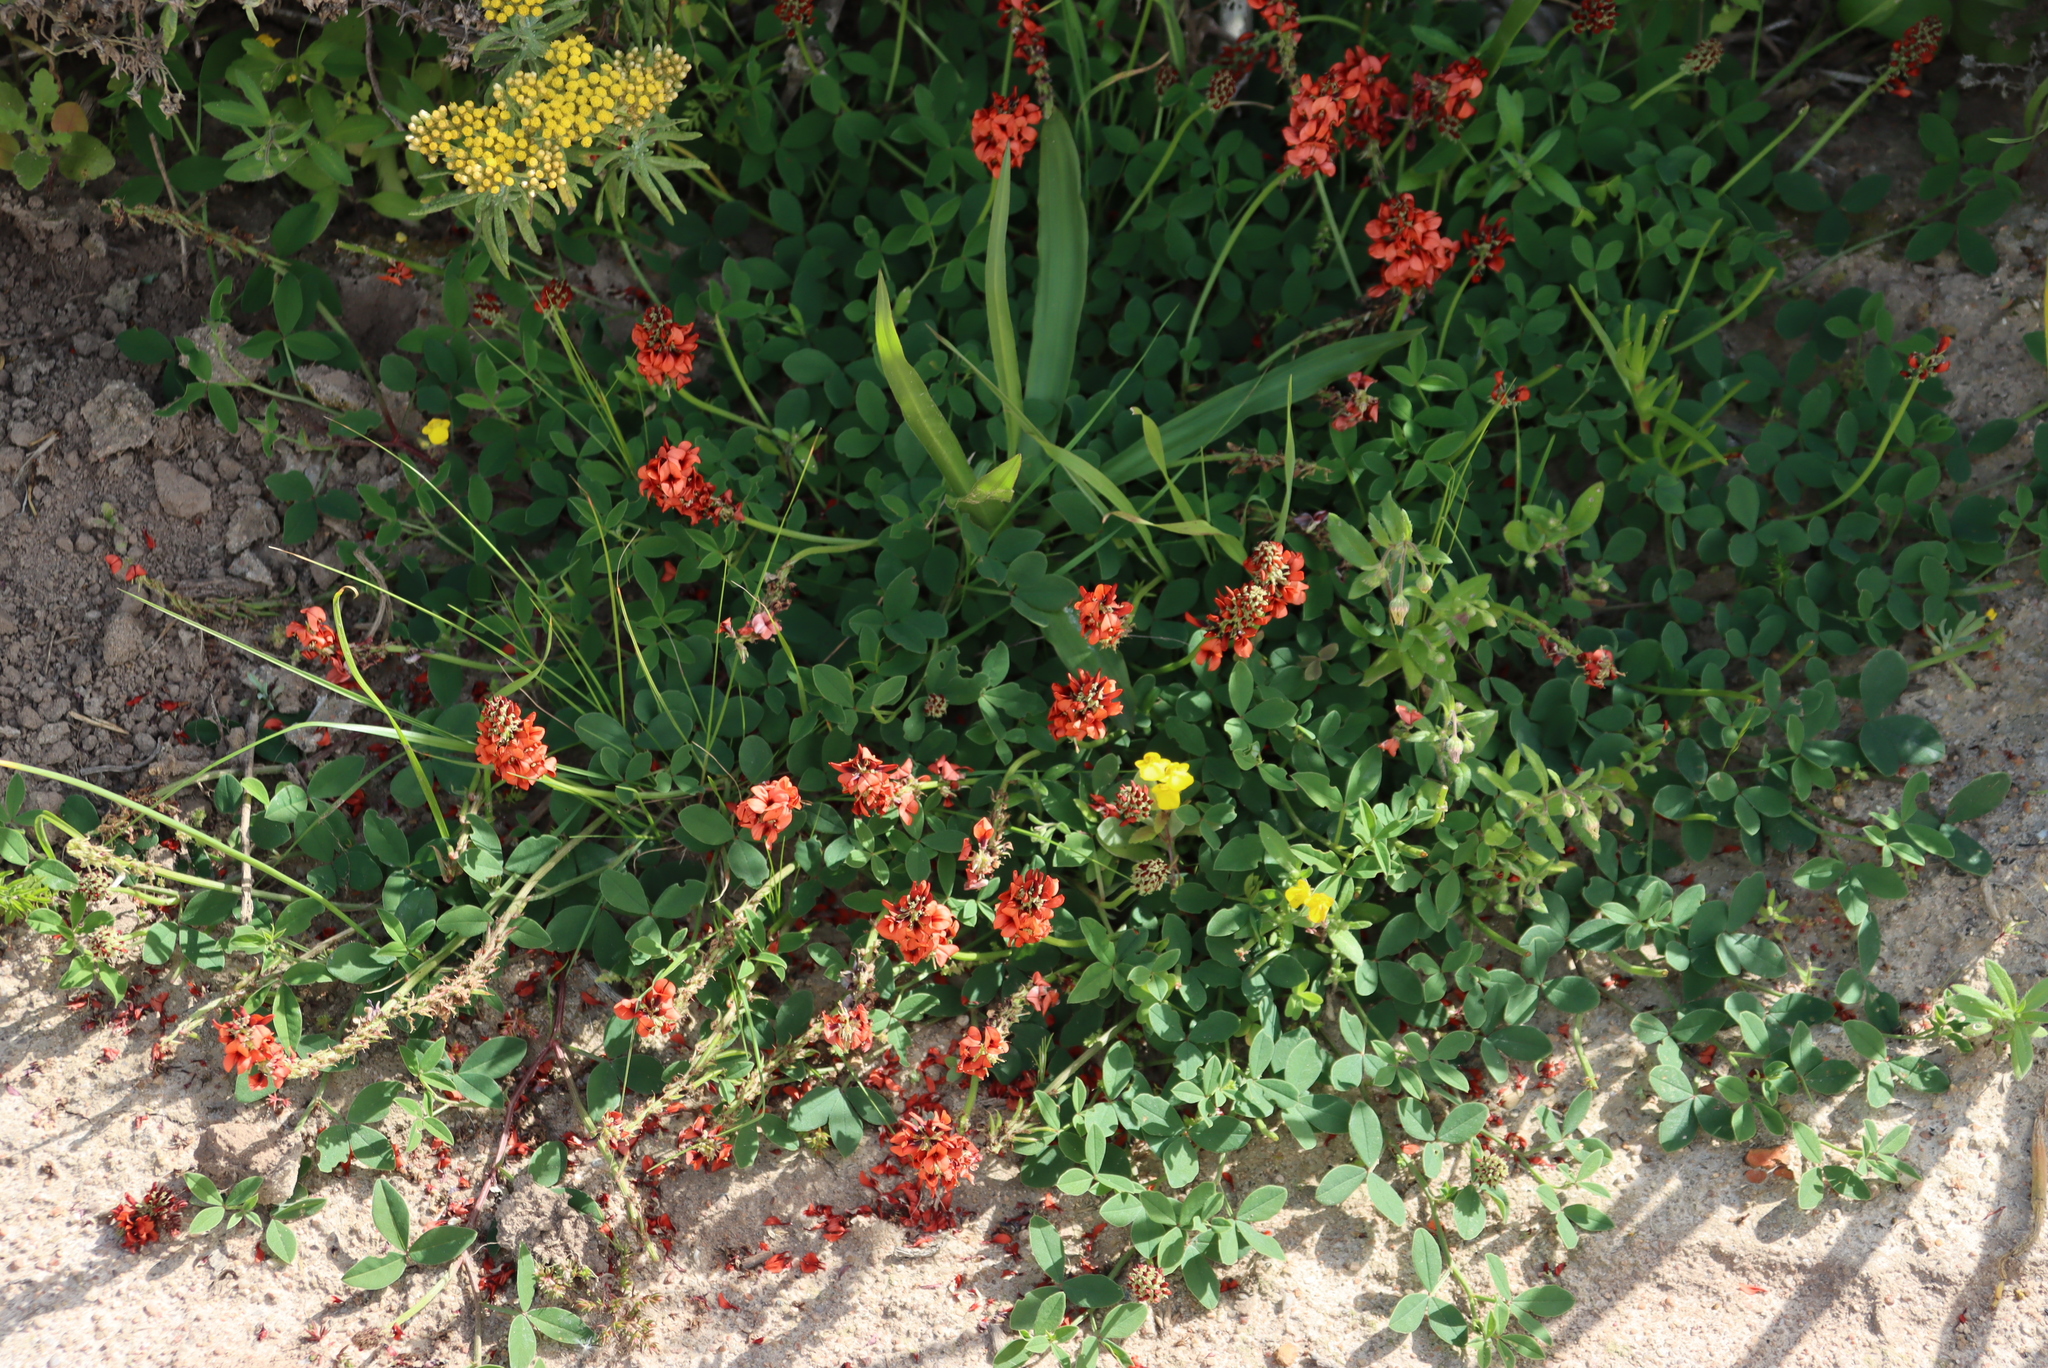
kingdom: Plantae
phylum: Tracheophyta
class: Magnoliopsida
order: Fabales
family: Fabaceae
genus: Indigofera
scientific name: Indigofera
